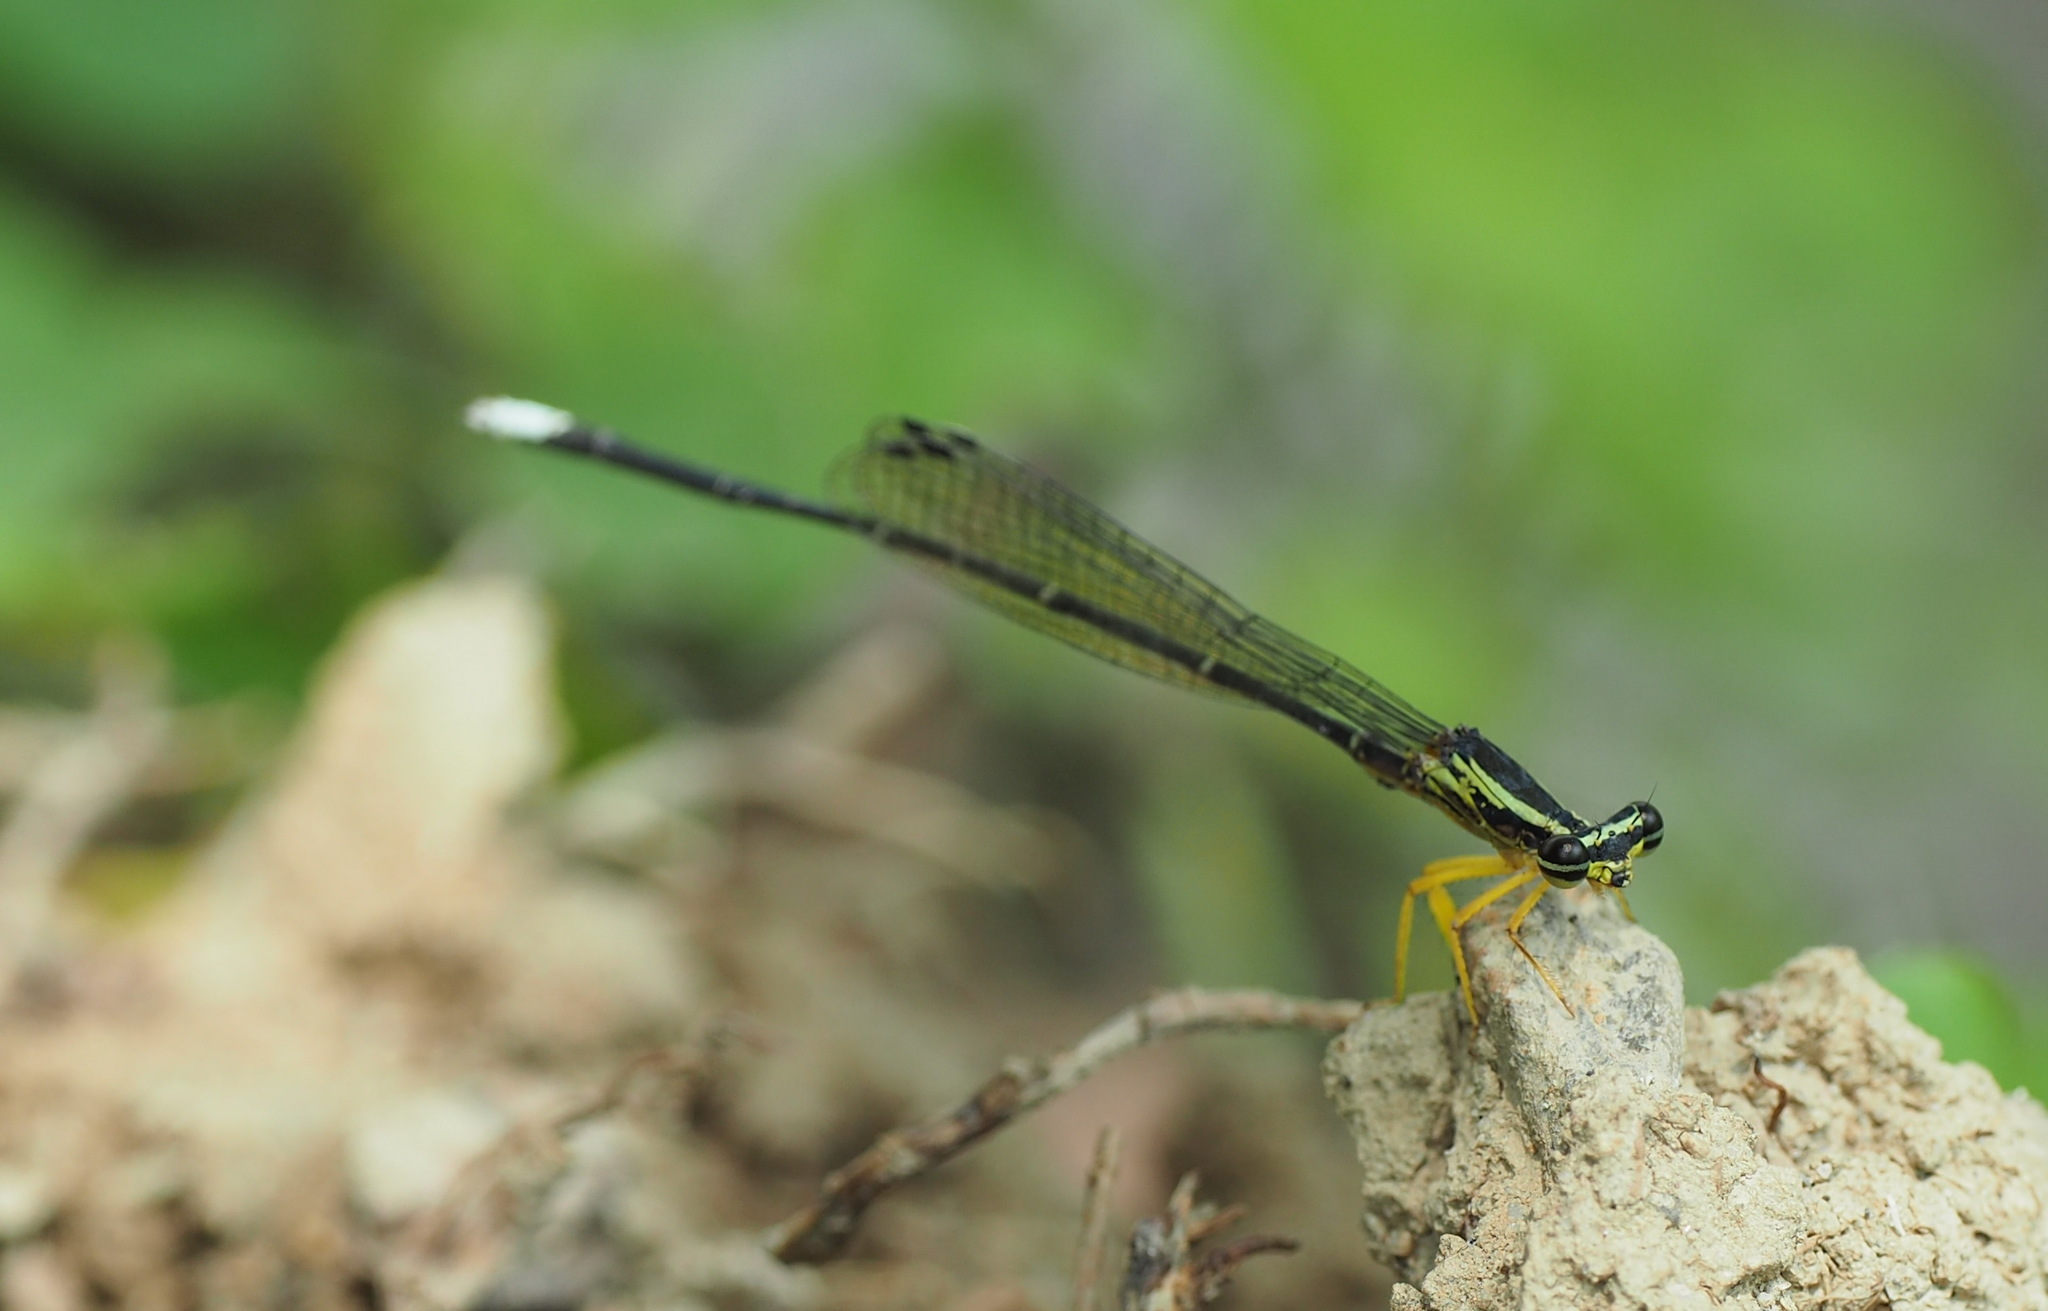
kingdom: Animalia
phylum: Arthropoda
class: Insecta
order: Odonata
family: Platycnemididae
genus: Copera
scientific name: Copera marginipes
